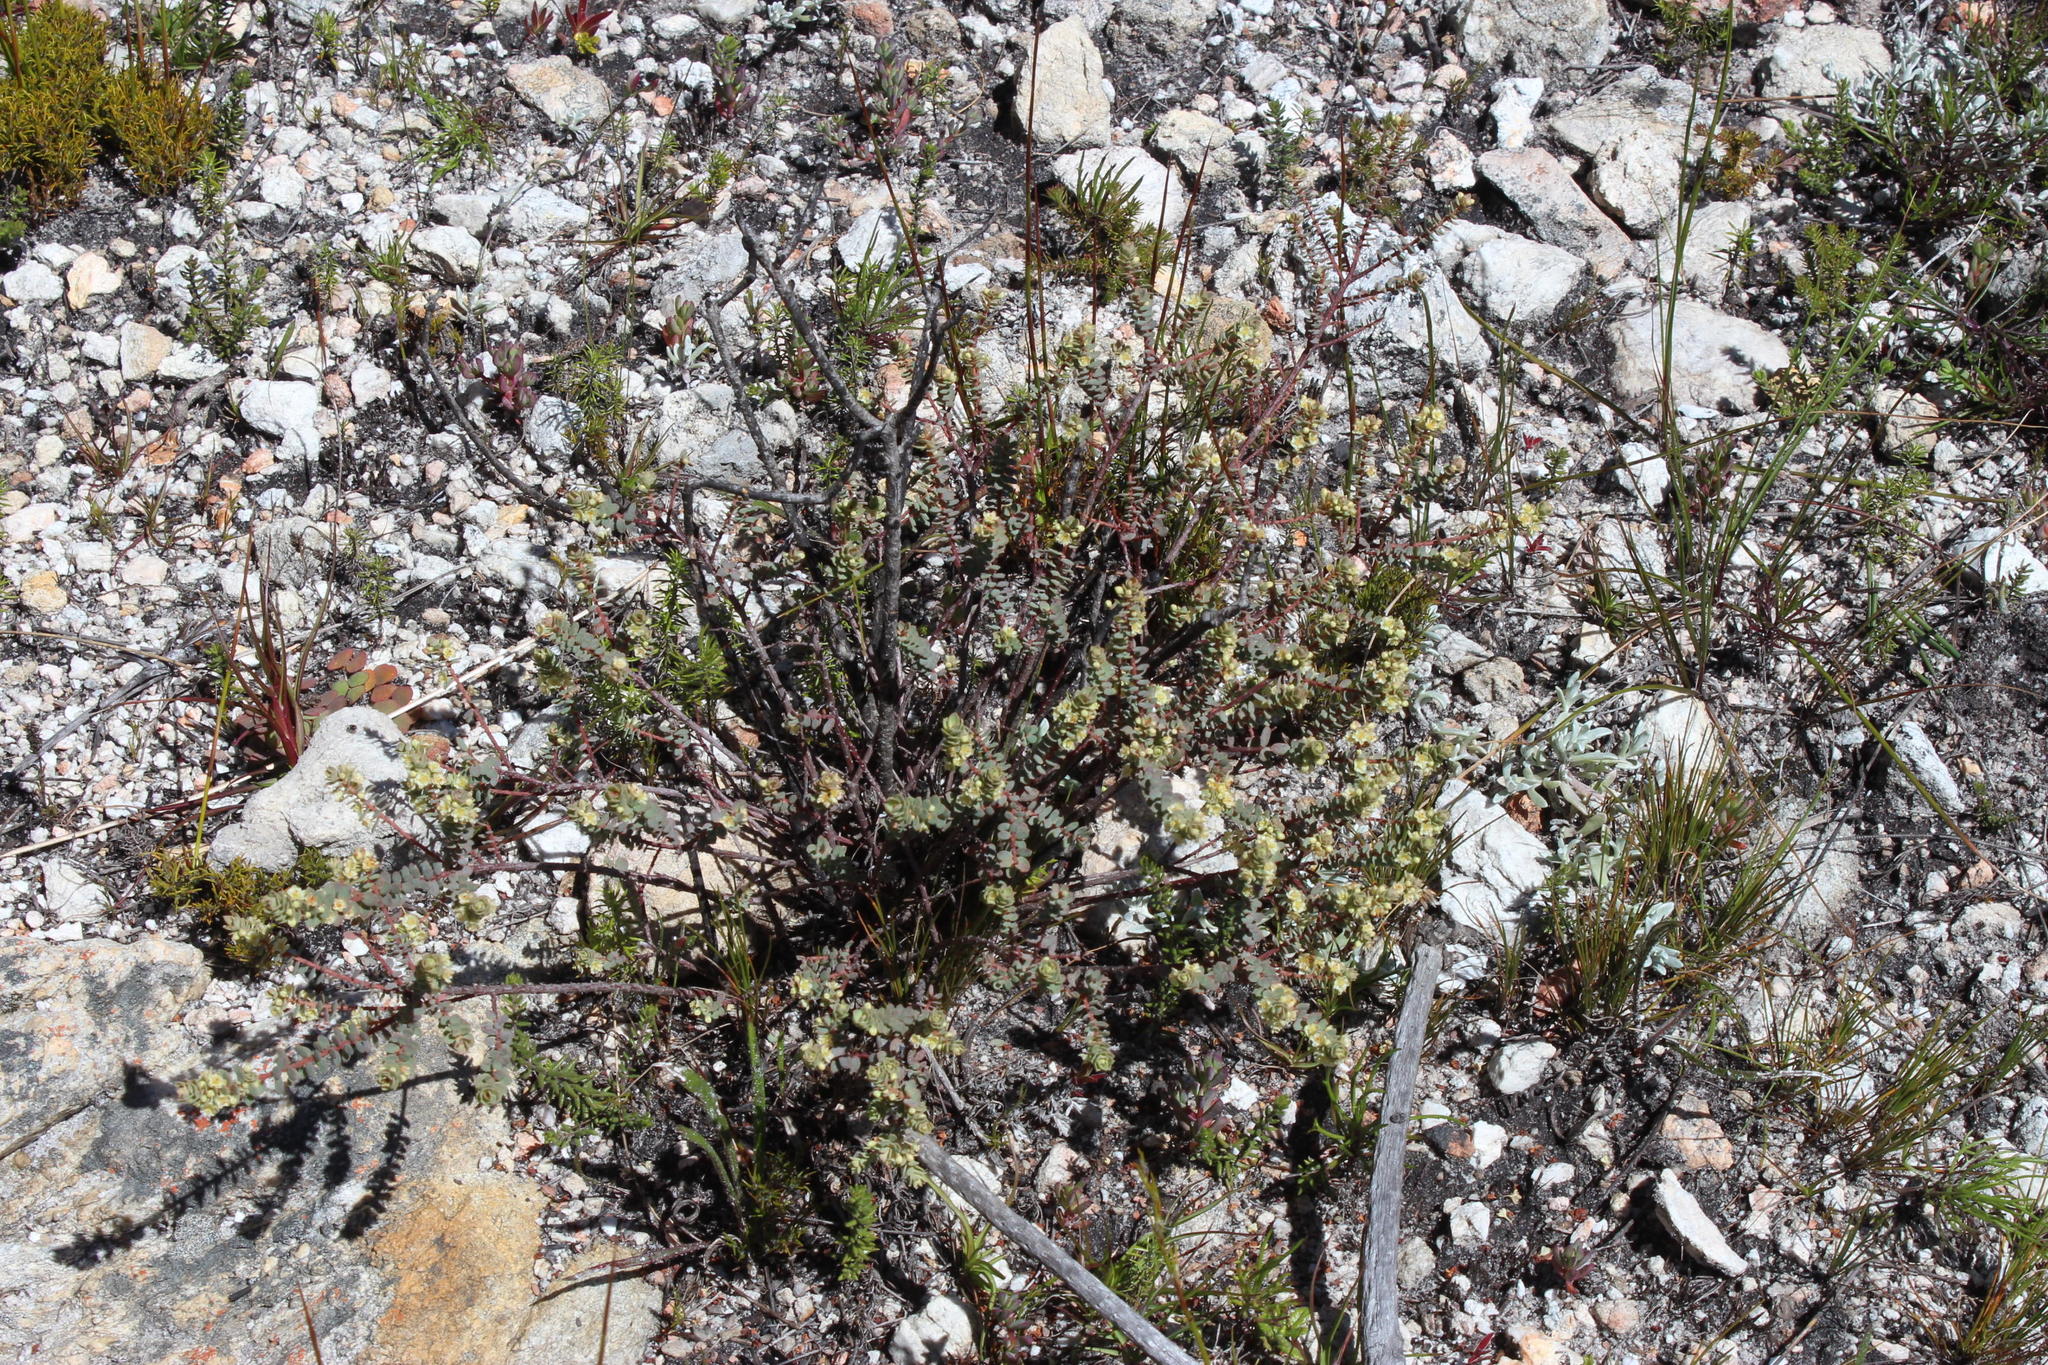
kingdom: Plantae
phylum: Tracheophyta
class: Magnoliopsida
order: Malpighiales
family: Peraceae
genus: Clutia
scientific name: Clutia alaternoides
